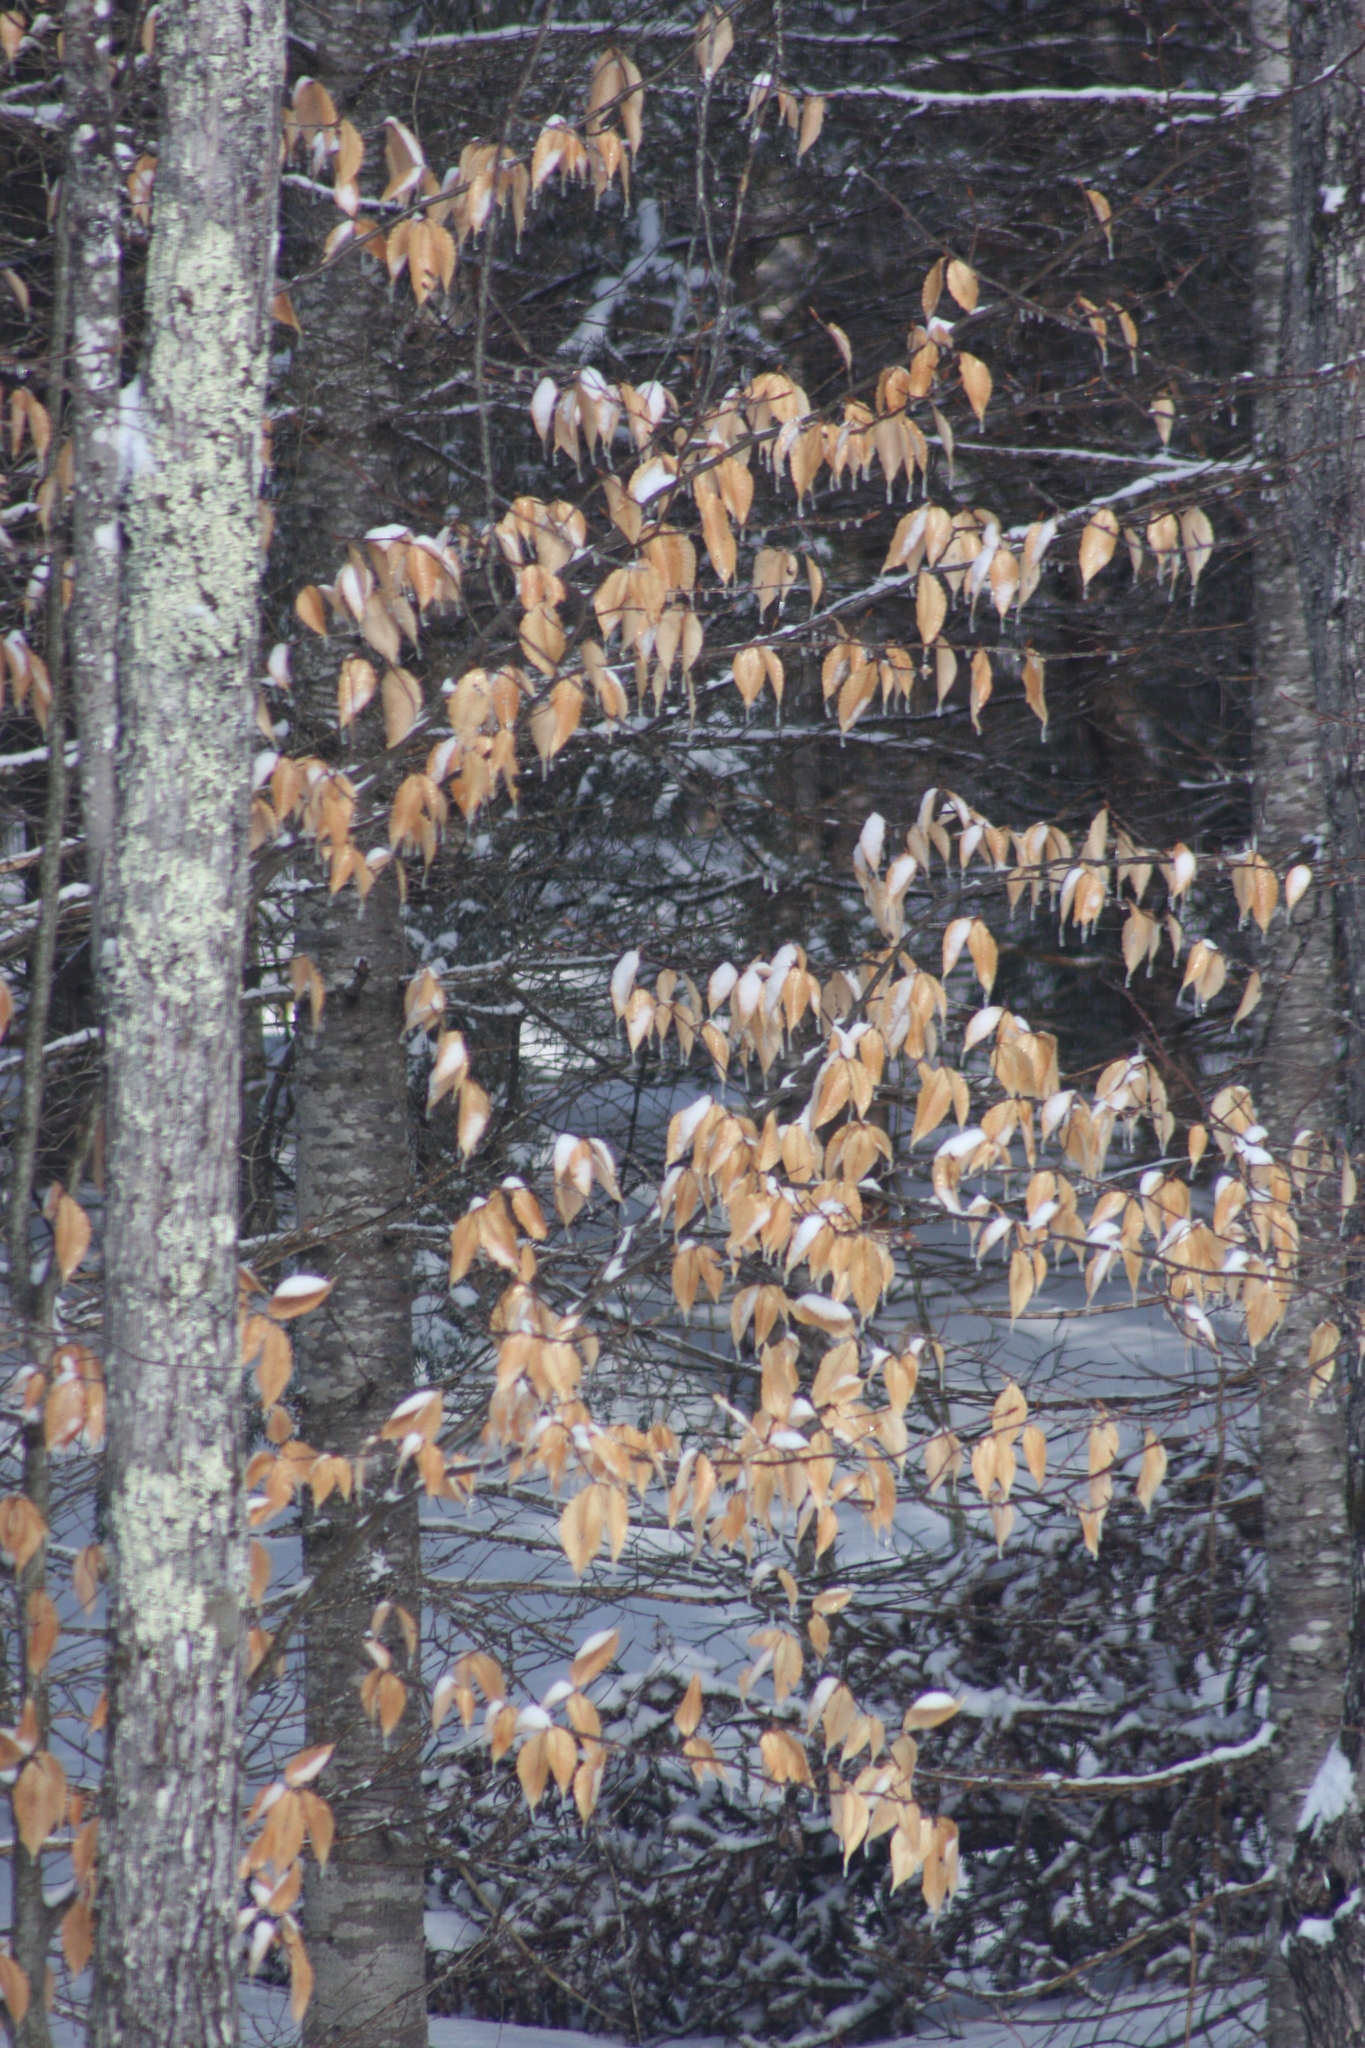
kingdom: Plantae
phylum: Tracheophyta
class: Magnoliopsida
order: Fagales
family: Fagaceae
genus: Fagus
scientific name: Fagus grandifolia
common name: American beech
